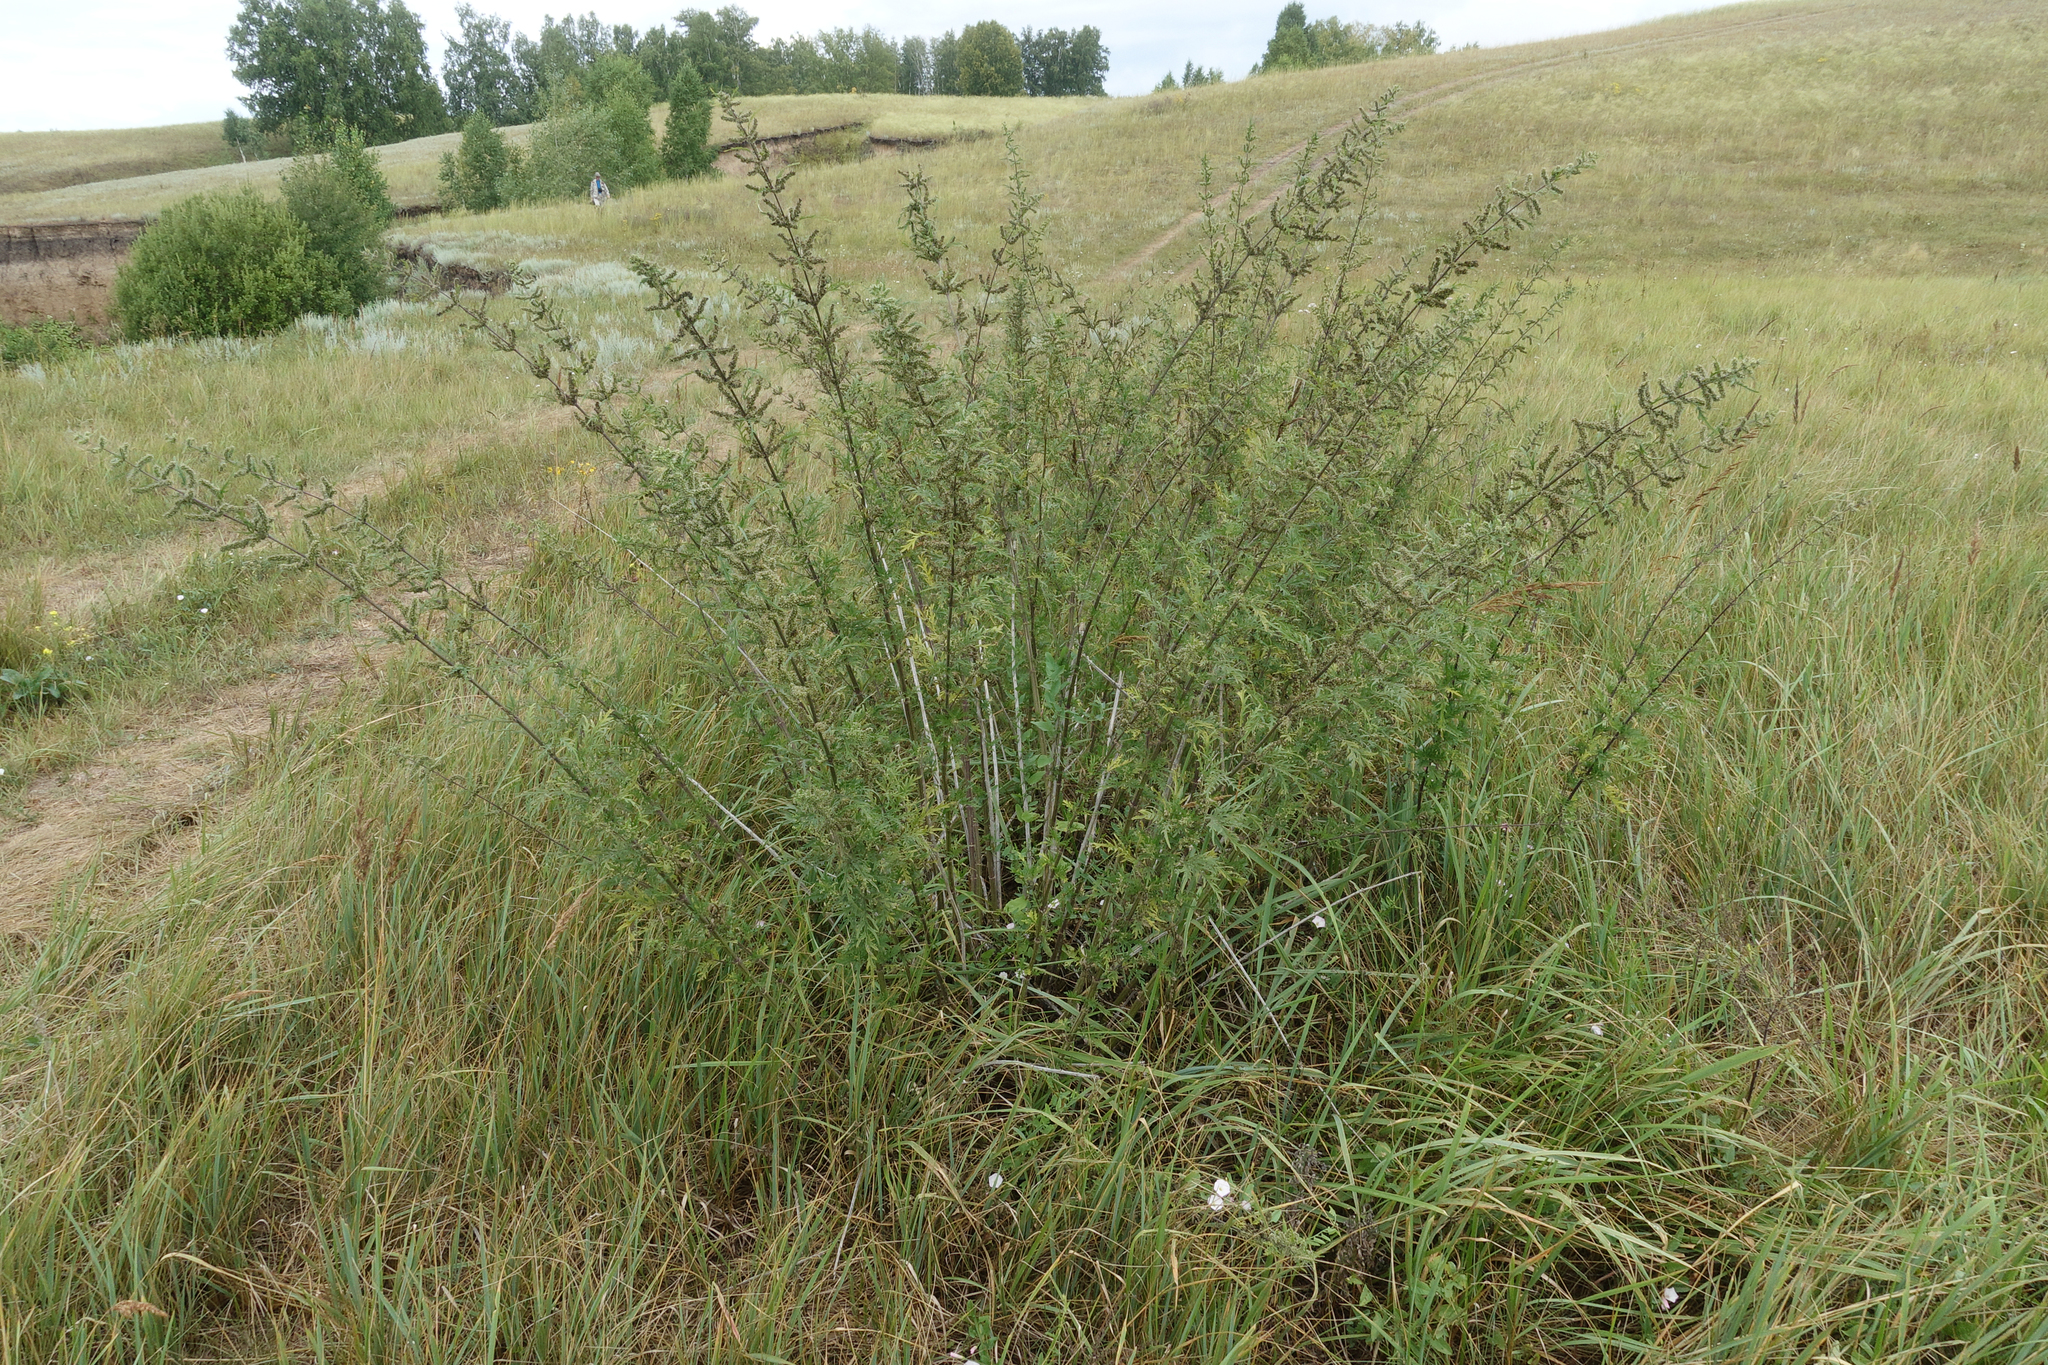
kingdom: Plantae
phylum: Tracheophyta
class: Magnoliopsida
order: Rosales
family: Urticaceae
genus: Urtica
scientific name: Urtica cannabina
